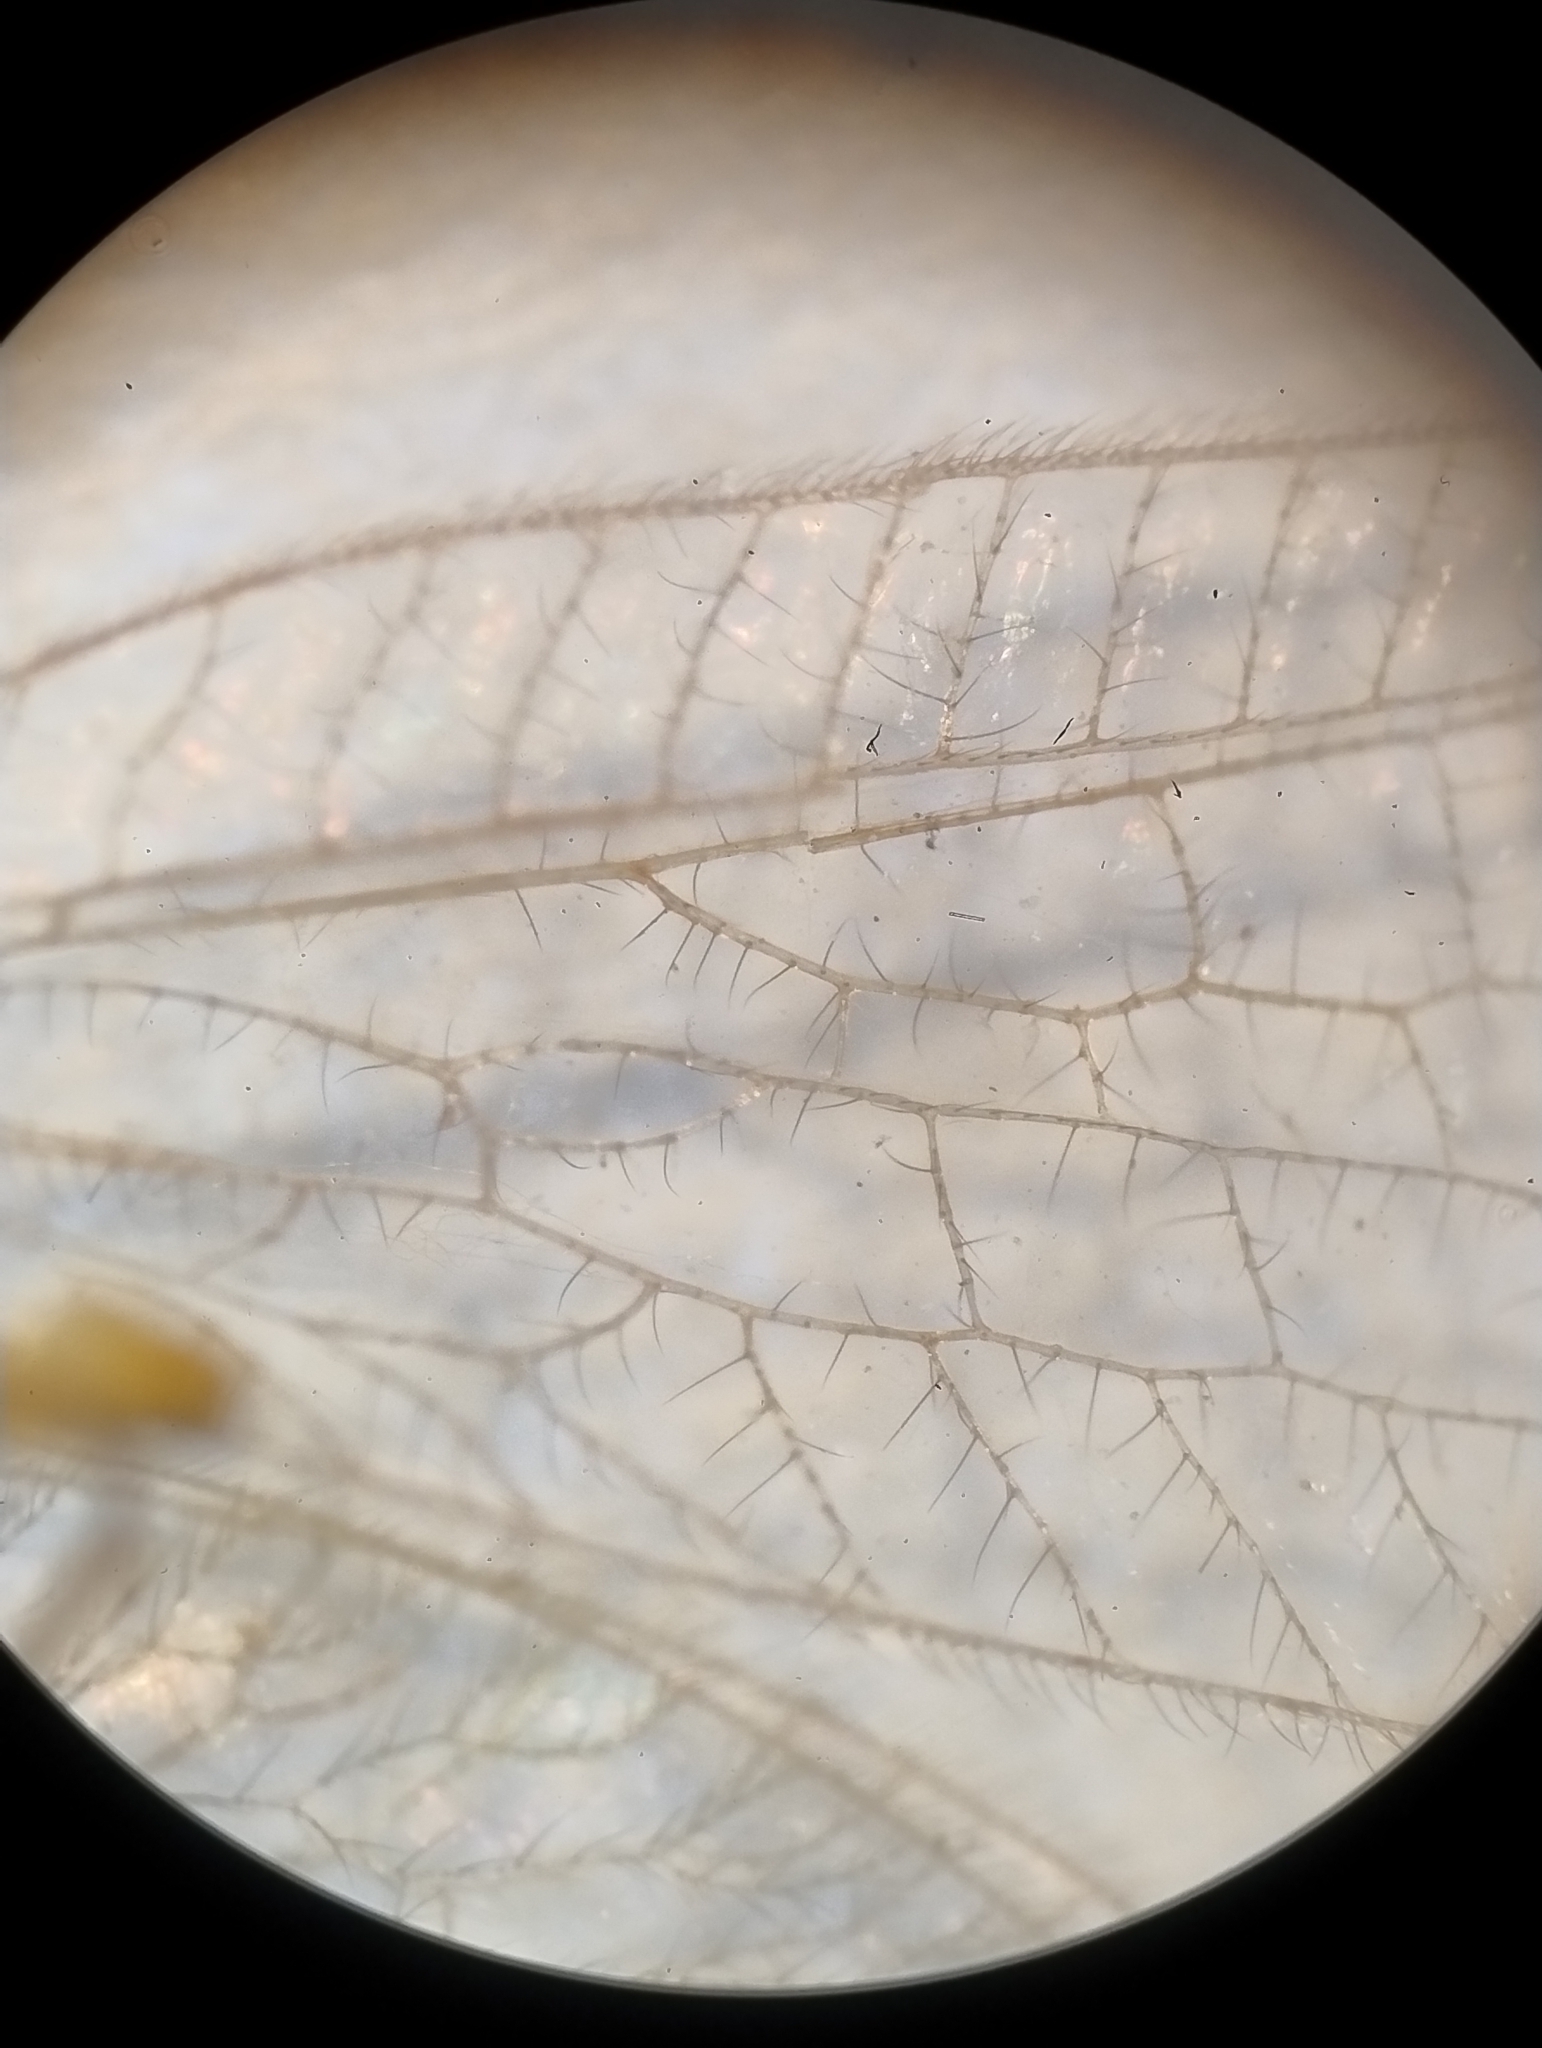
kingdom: Animalia
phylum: Arthropoda
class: Insecta
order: Neuroptera
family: Chrysopidae
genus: Chrysoperla
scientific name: Chrysoperla
